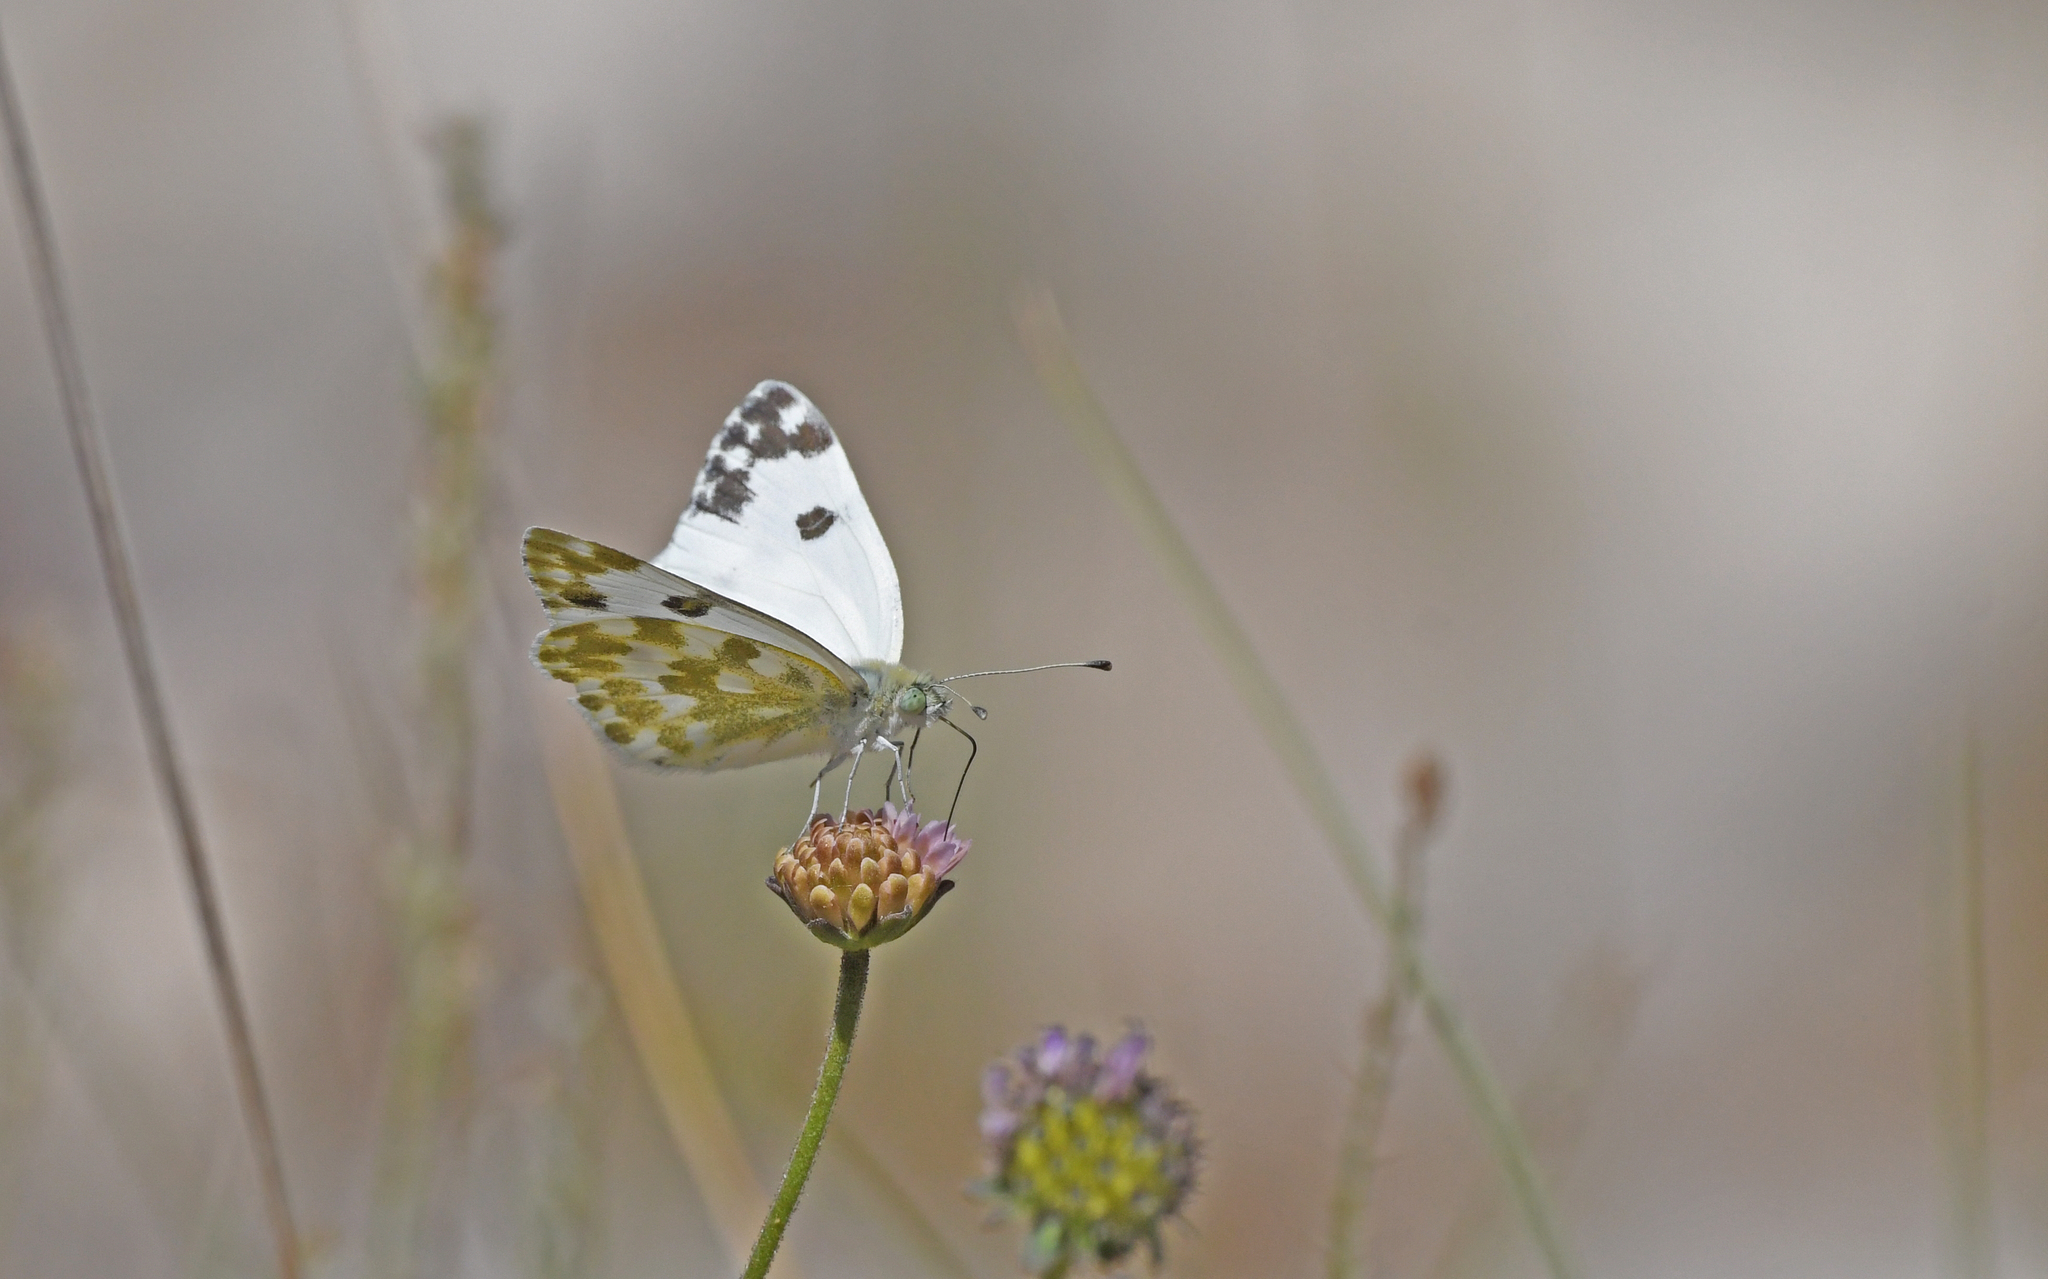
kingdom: Animalia
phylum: Arthropoda
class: Insecta
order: Lepidoptera
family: Pieridae
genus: Pontia
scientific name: Pontia daplidice
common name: Bath white
